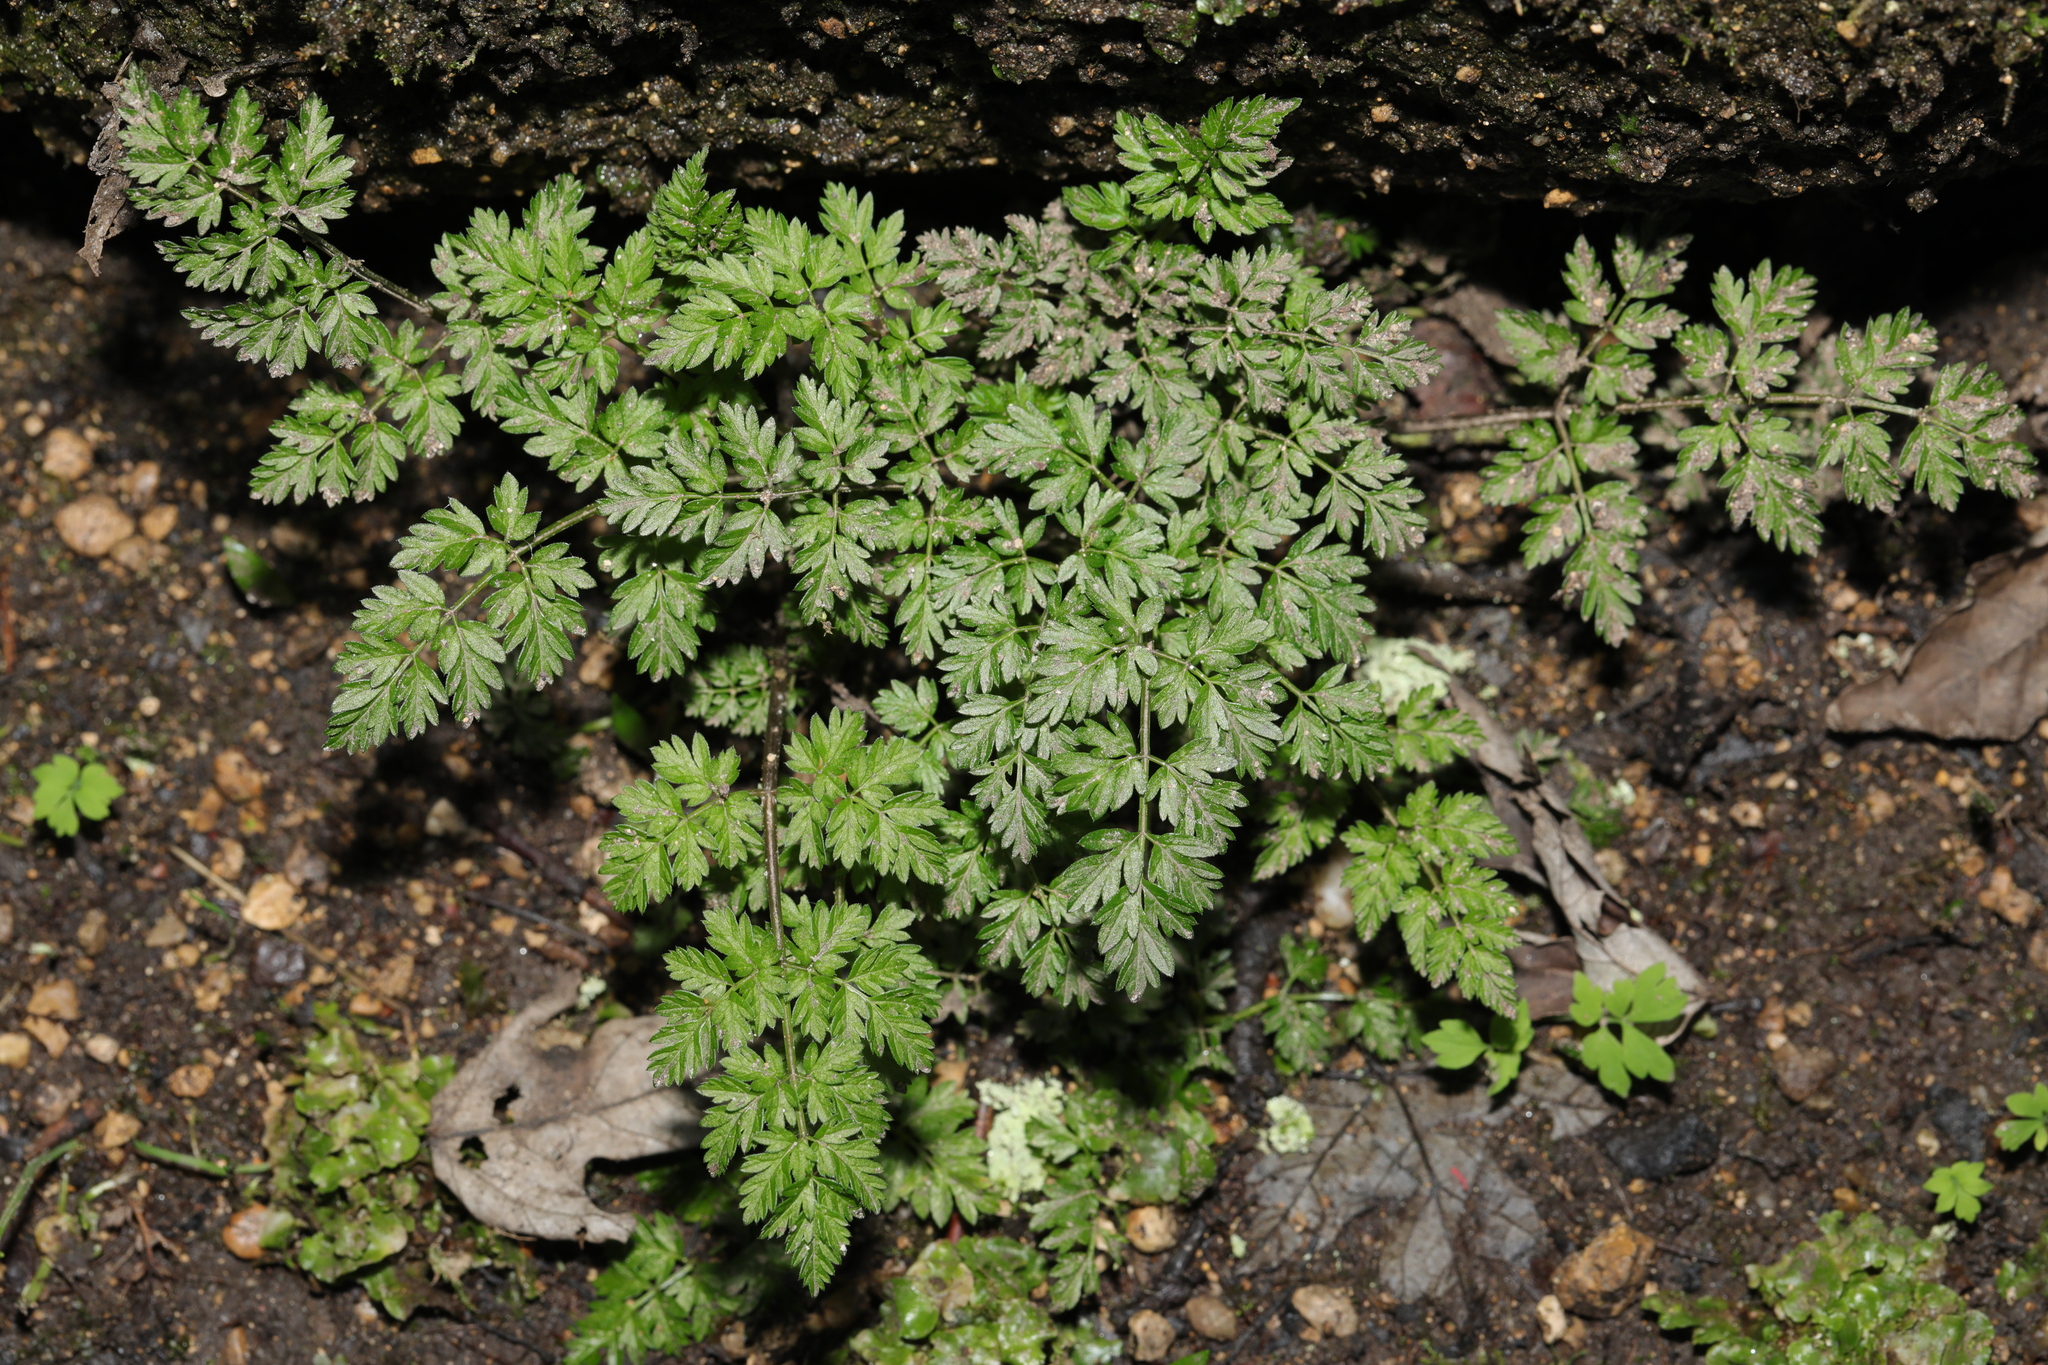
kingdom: Plantae
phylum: Tracheophyta
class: Magnoliopsida
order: Apiales
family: Apiaceae
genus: Anthriscus
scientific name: Anthriscus sylvestris
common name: Cow parsley
